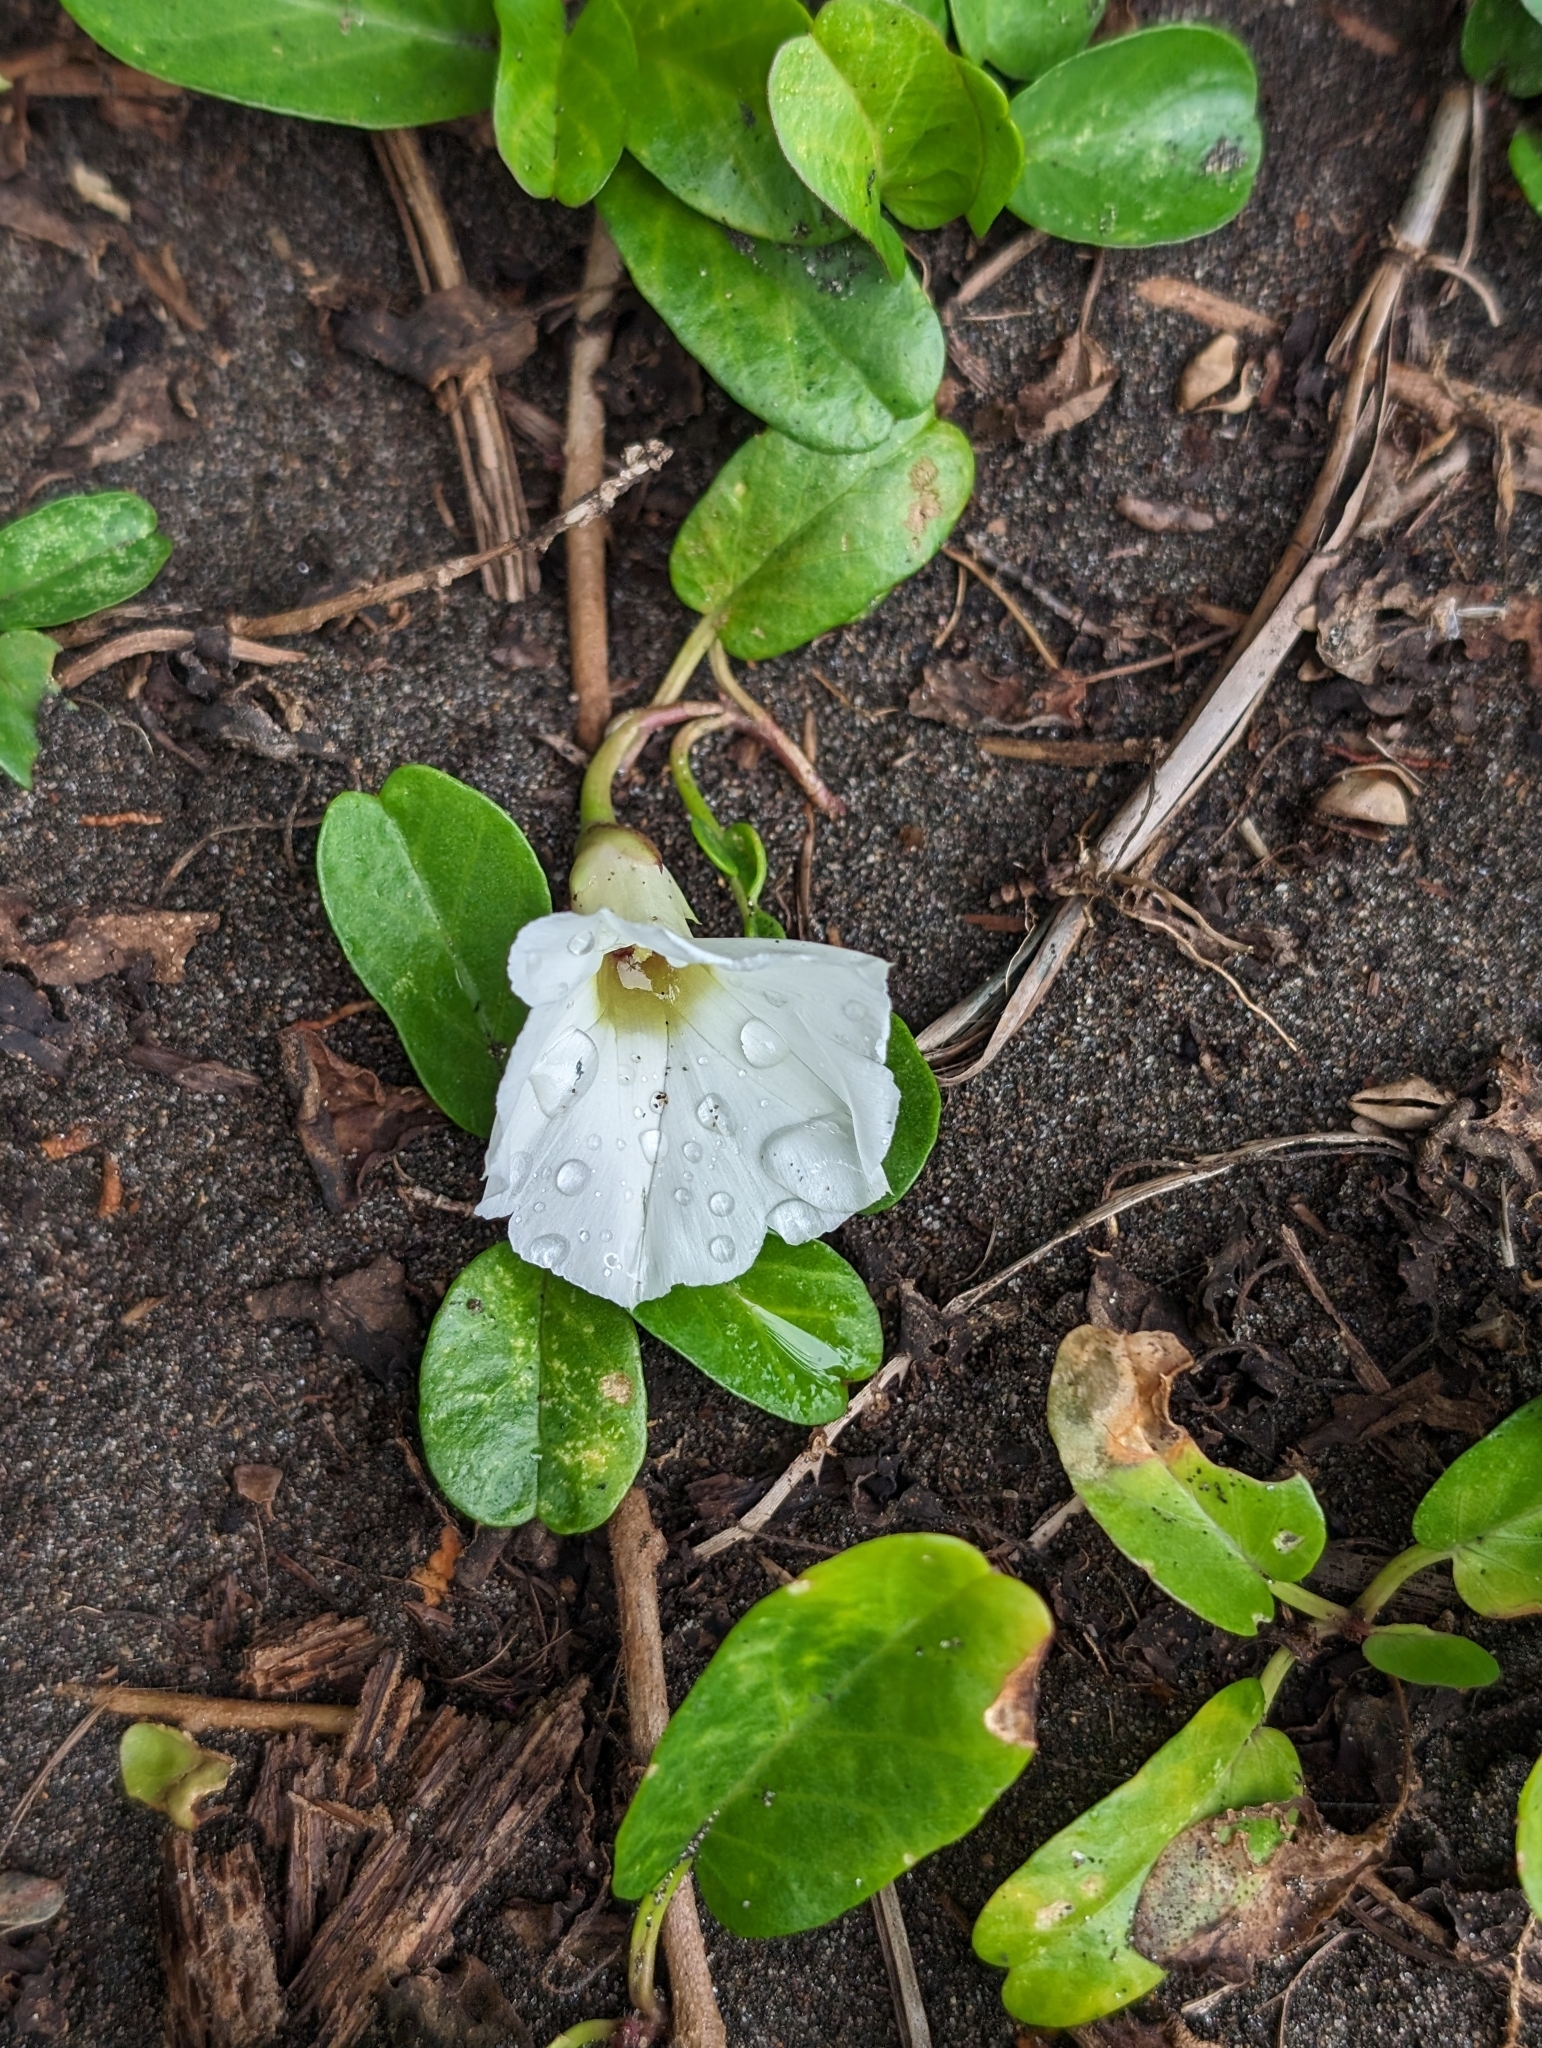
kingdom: Plantae
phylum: Tracheophyta
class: Magnoliopsida
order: Solanales
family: Convolvulaceae
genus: Ipomoea
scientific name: Ipomoea imperati
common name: Fiddle-leaf morning-glory
